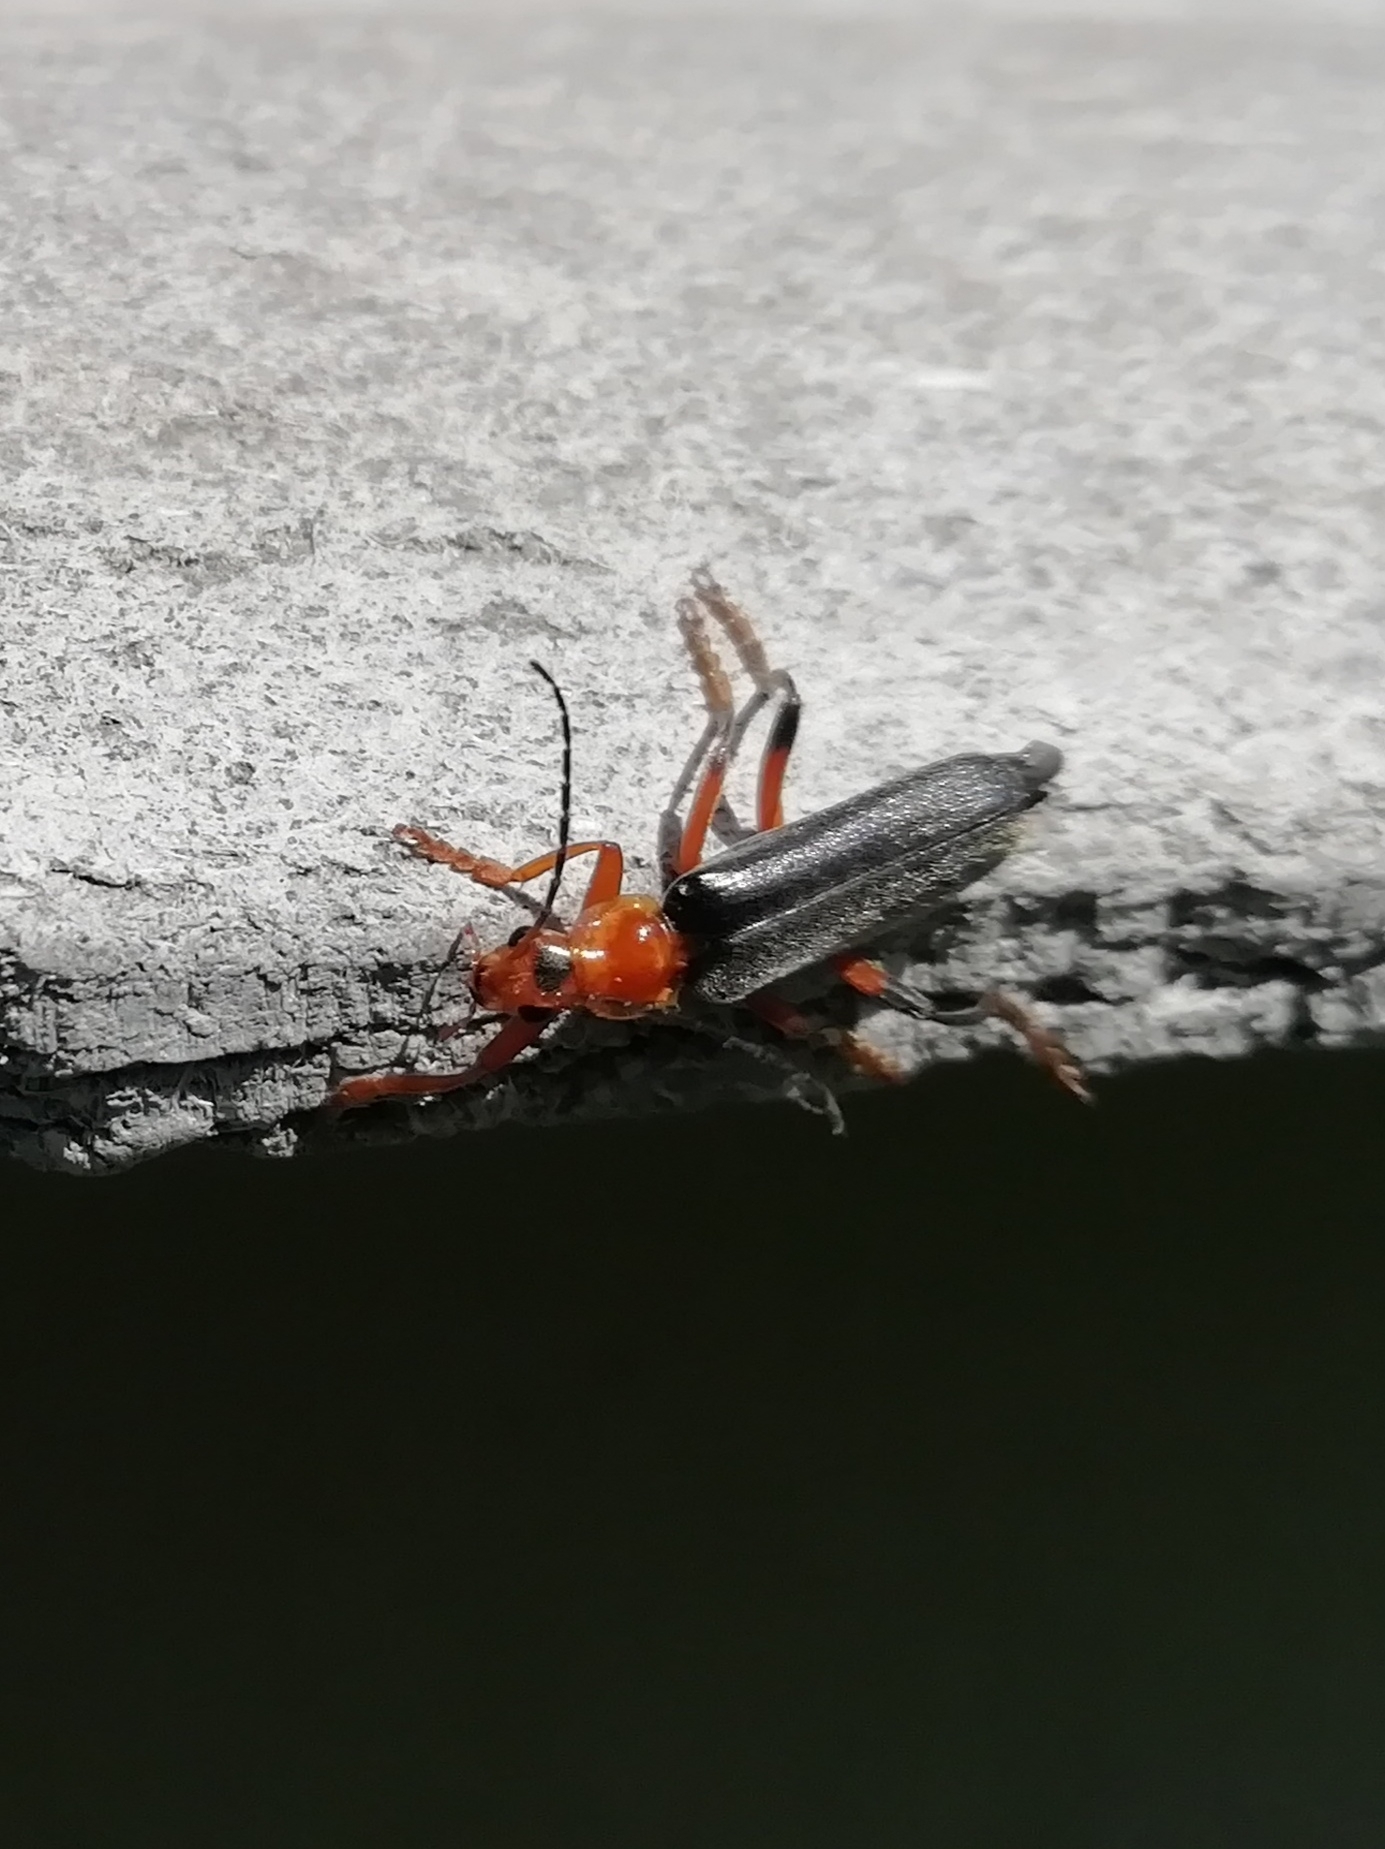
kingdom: Animalia
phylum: Arthropoda
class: Insecta
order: Coleoptera
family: Cantharidae
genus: Cantharis
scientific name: Cantharis livida
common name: Livid soldier beetle
